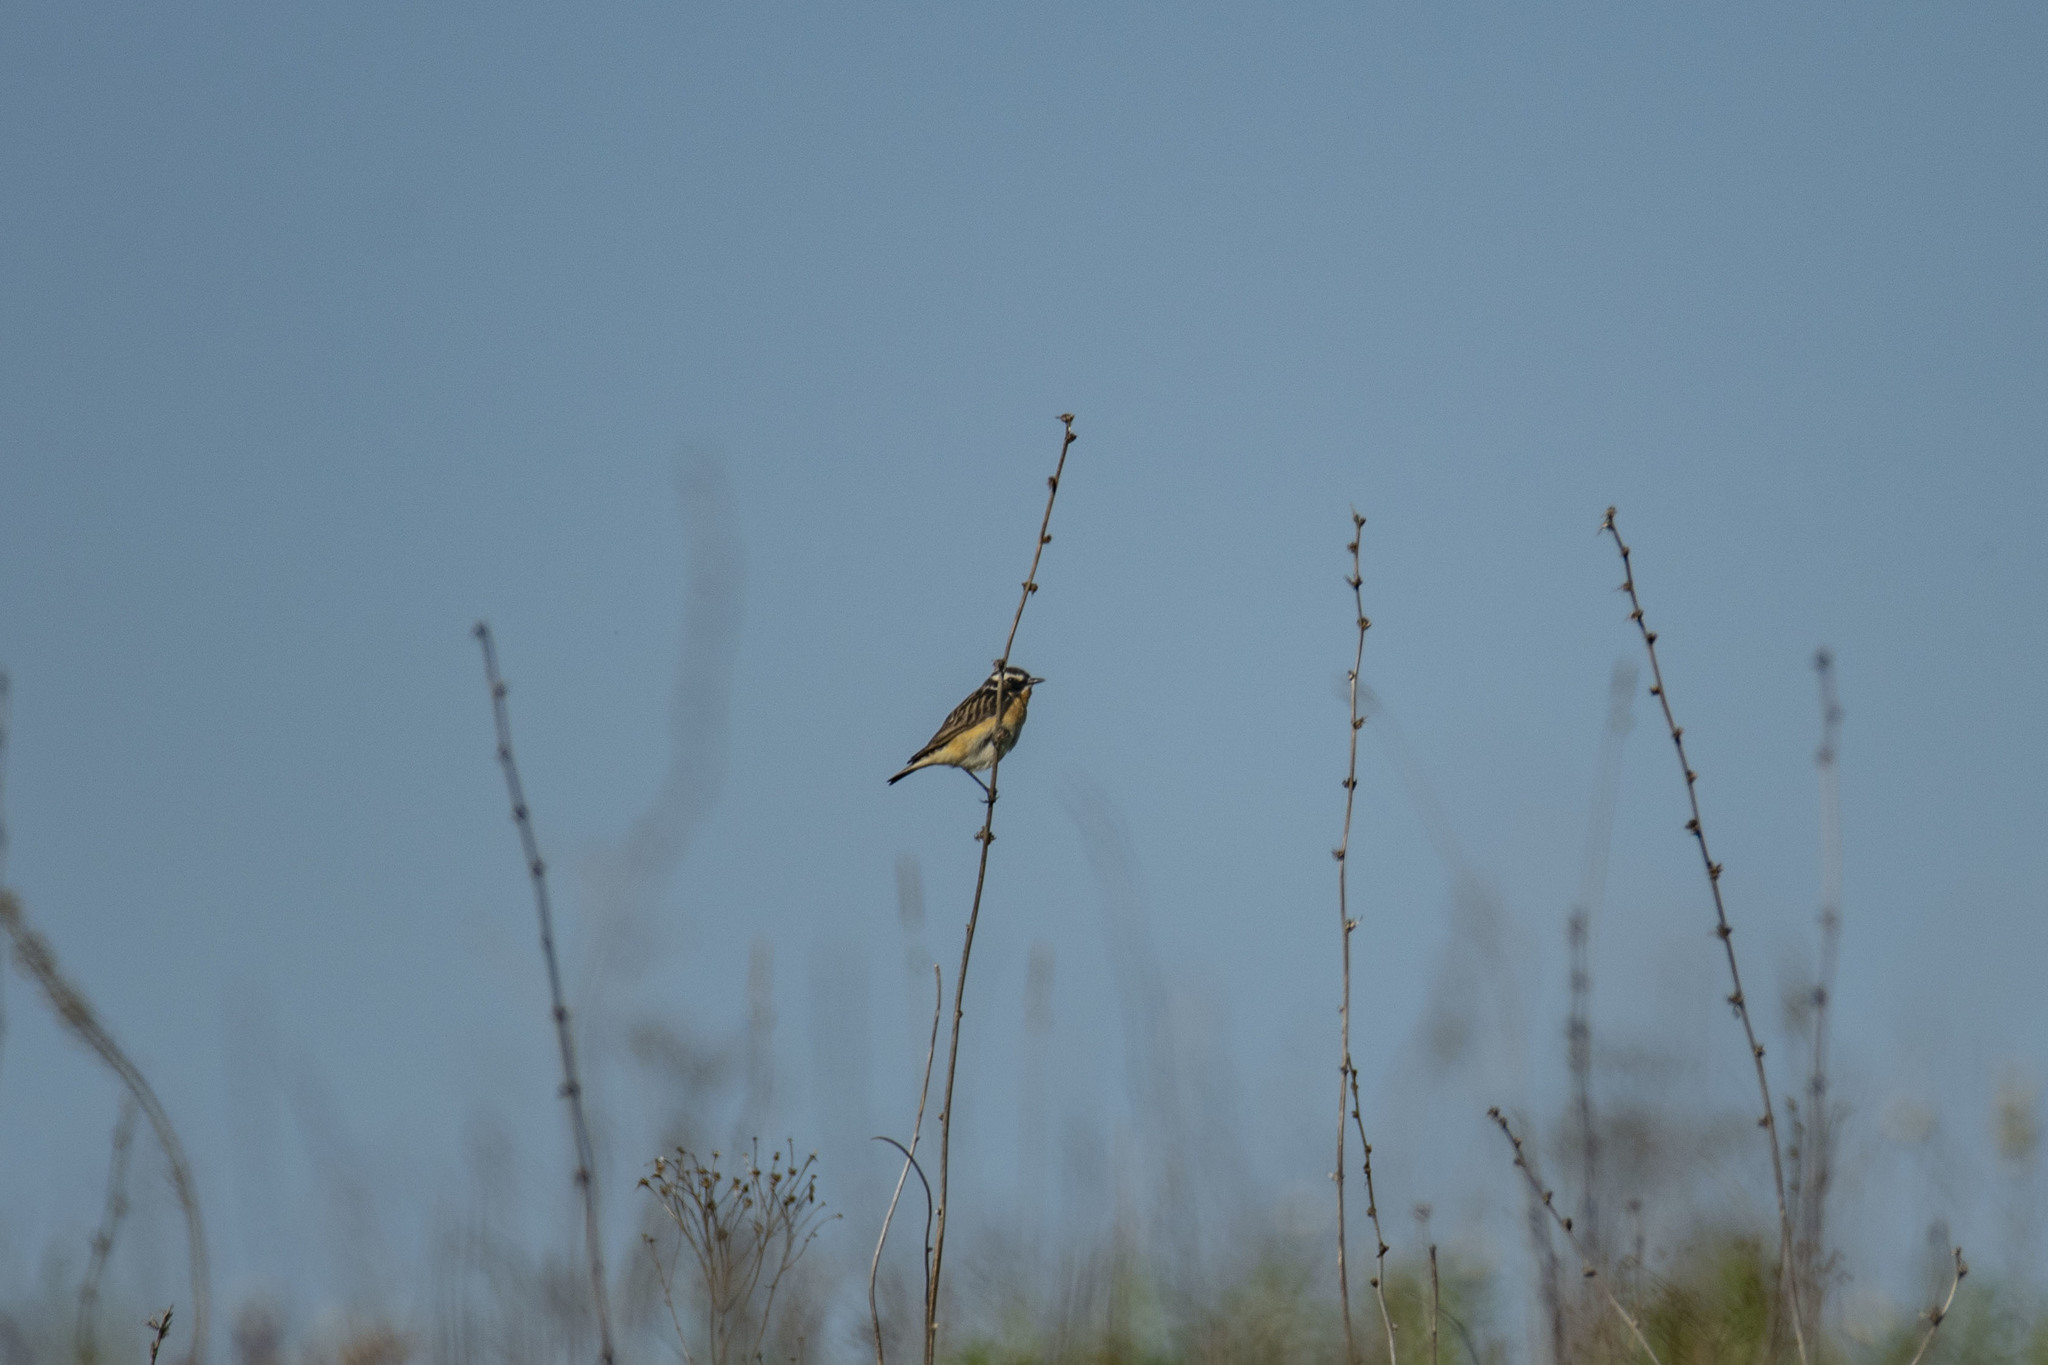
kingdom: Animalia
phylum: Chordata
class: Aves
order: Passeriformes
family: Muscicapidae
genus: Saxicola
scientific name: Saxicola rubetra
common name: Whinchat
